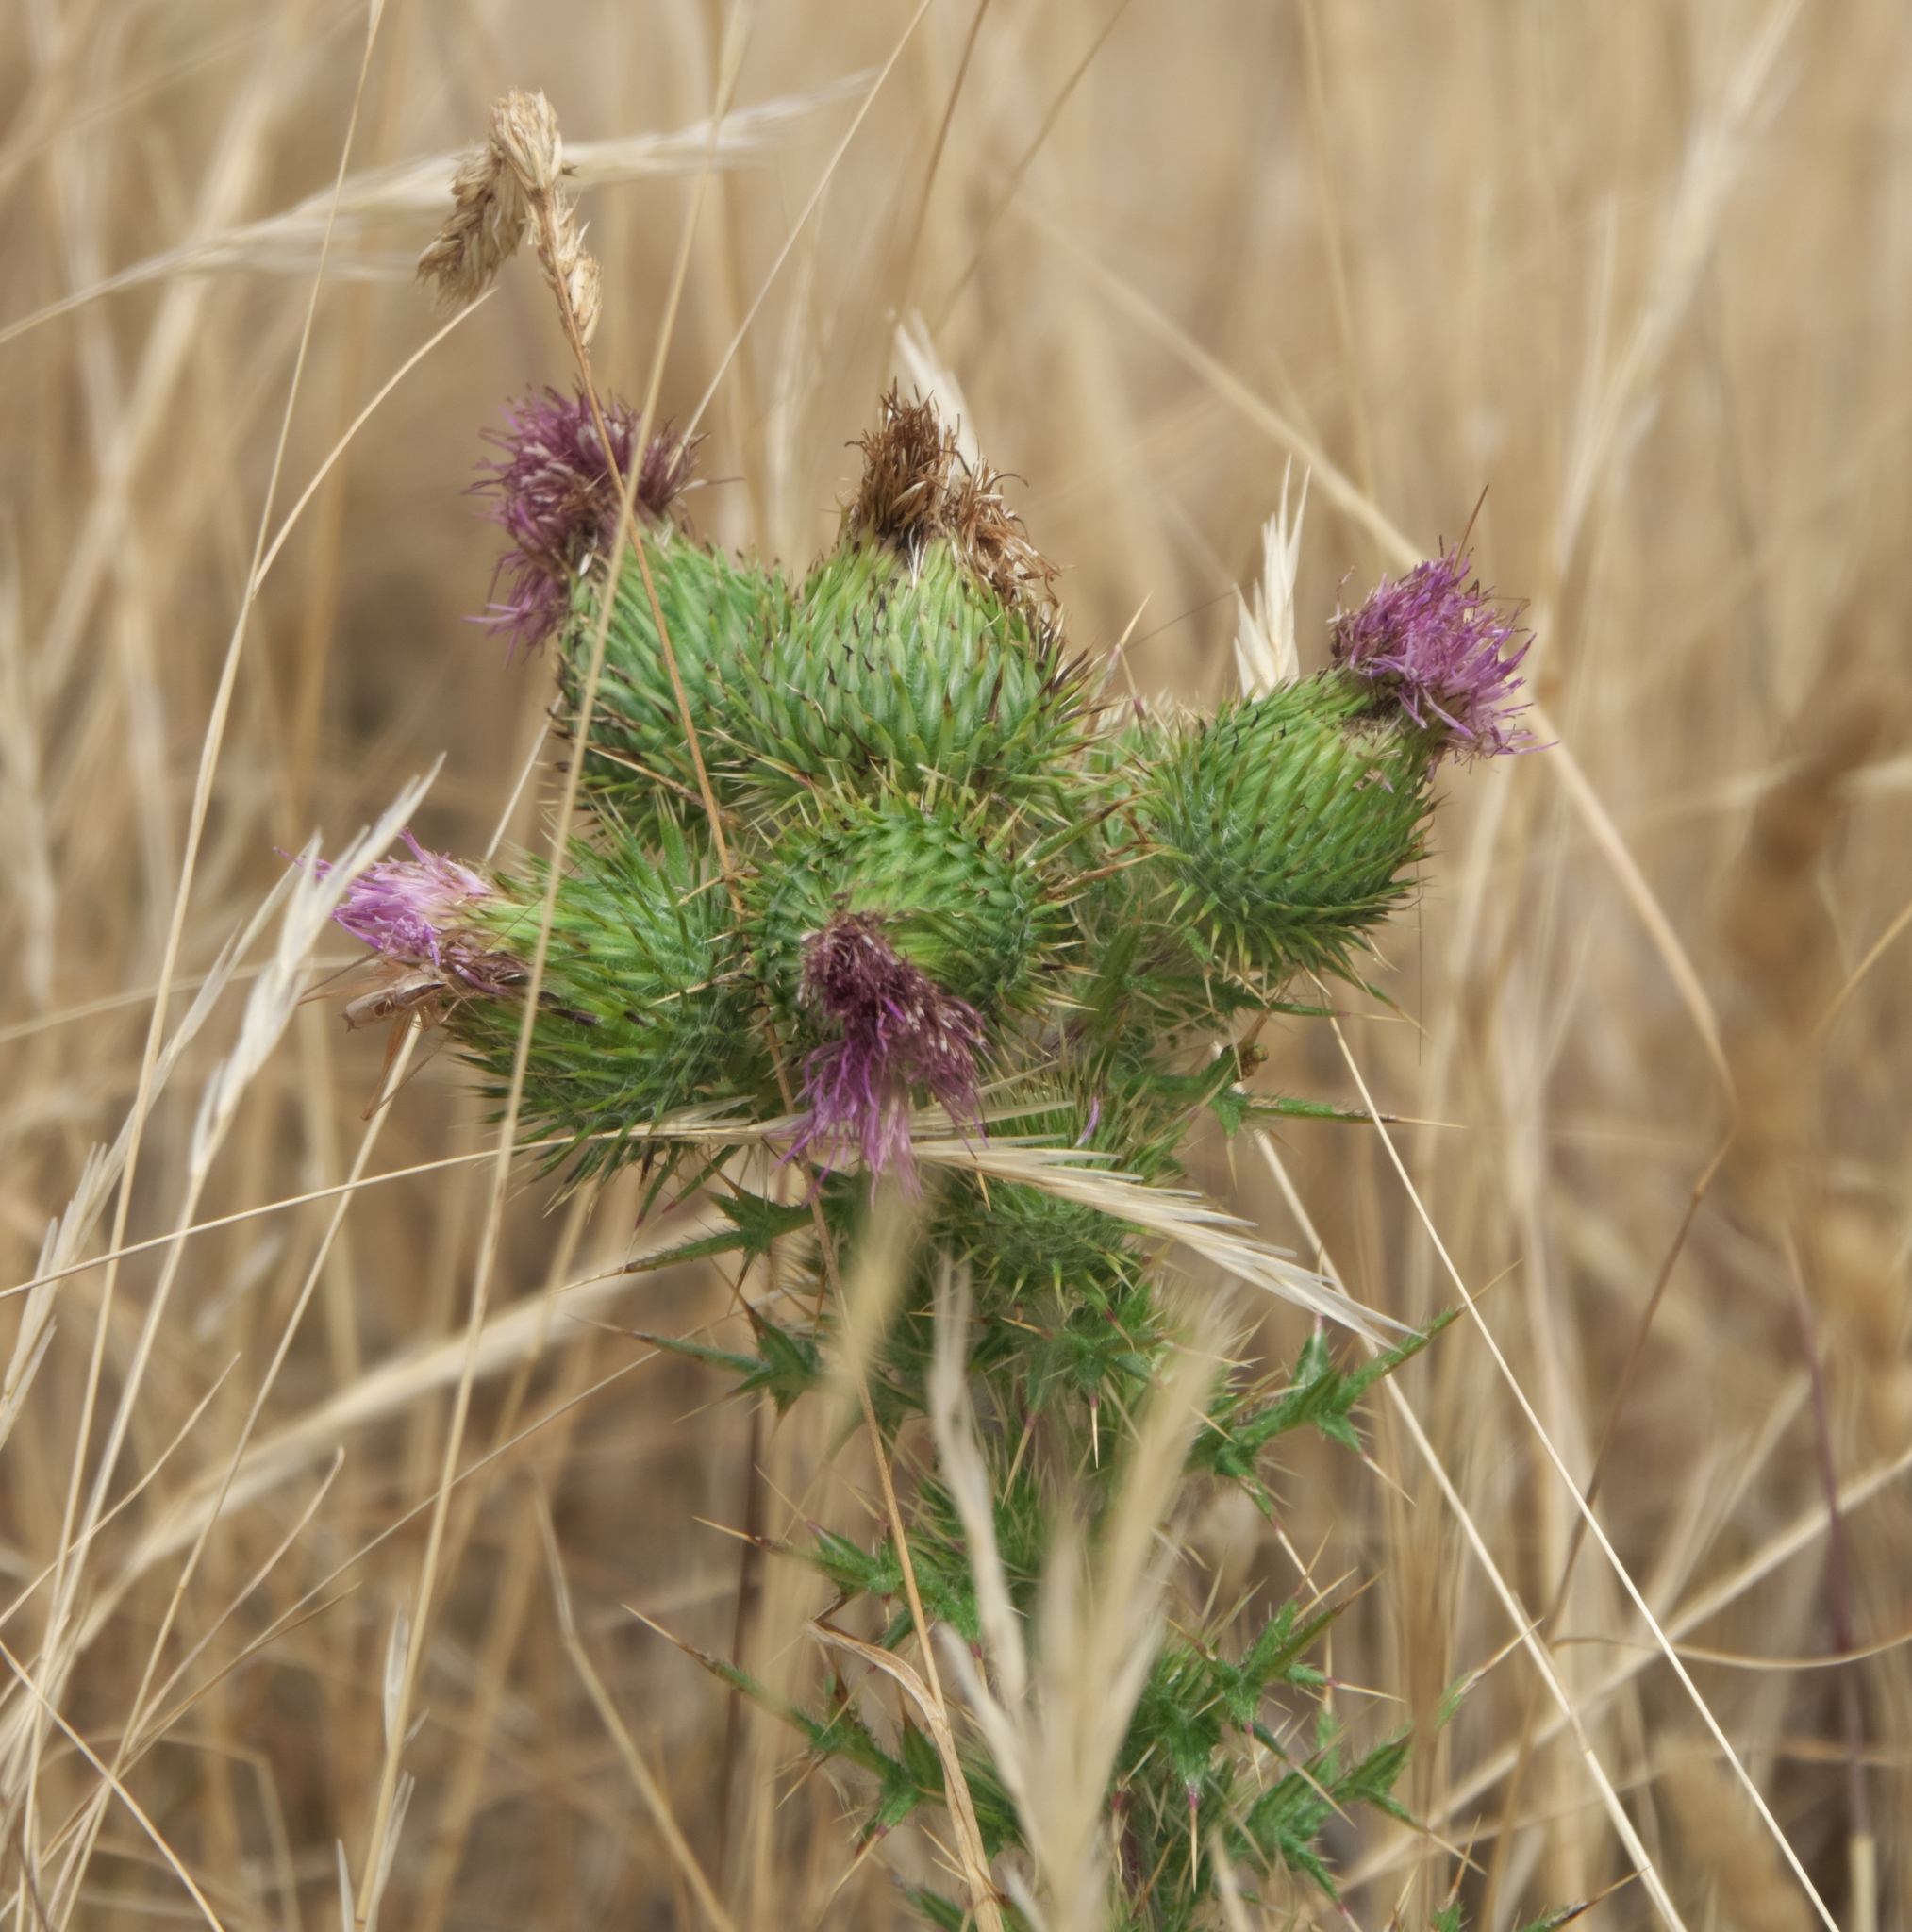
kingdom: Plantae
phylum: Tracheophyta
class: Magnoliopsida
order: Asterales
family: Asteraceae
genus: Cirsium
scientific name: Cirsium vulgare
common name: Bull thistle
